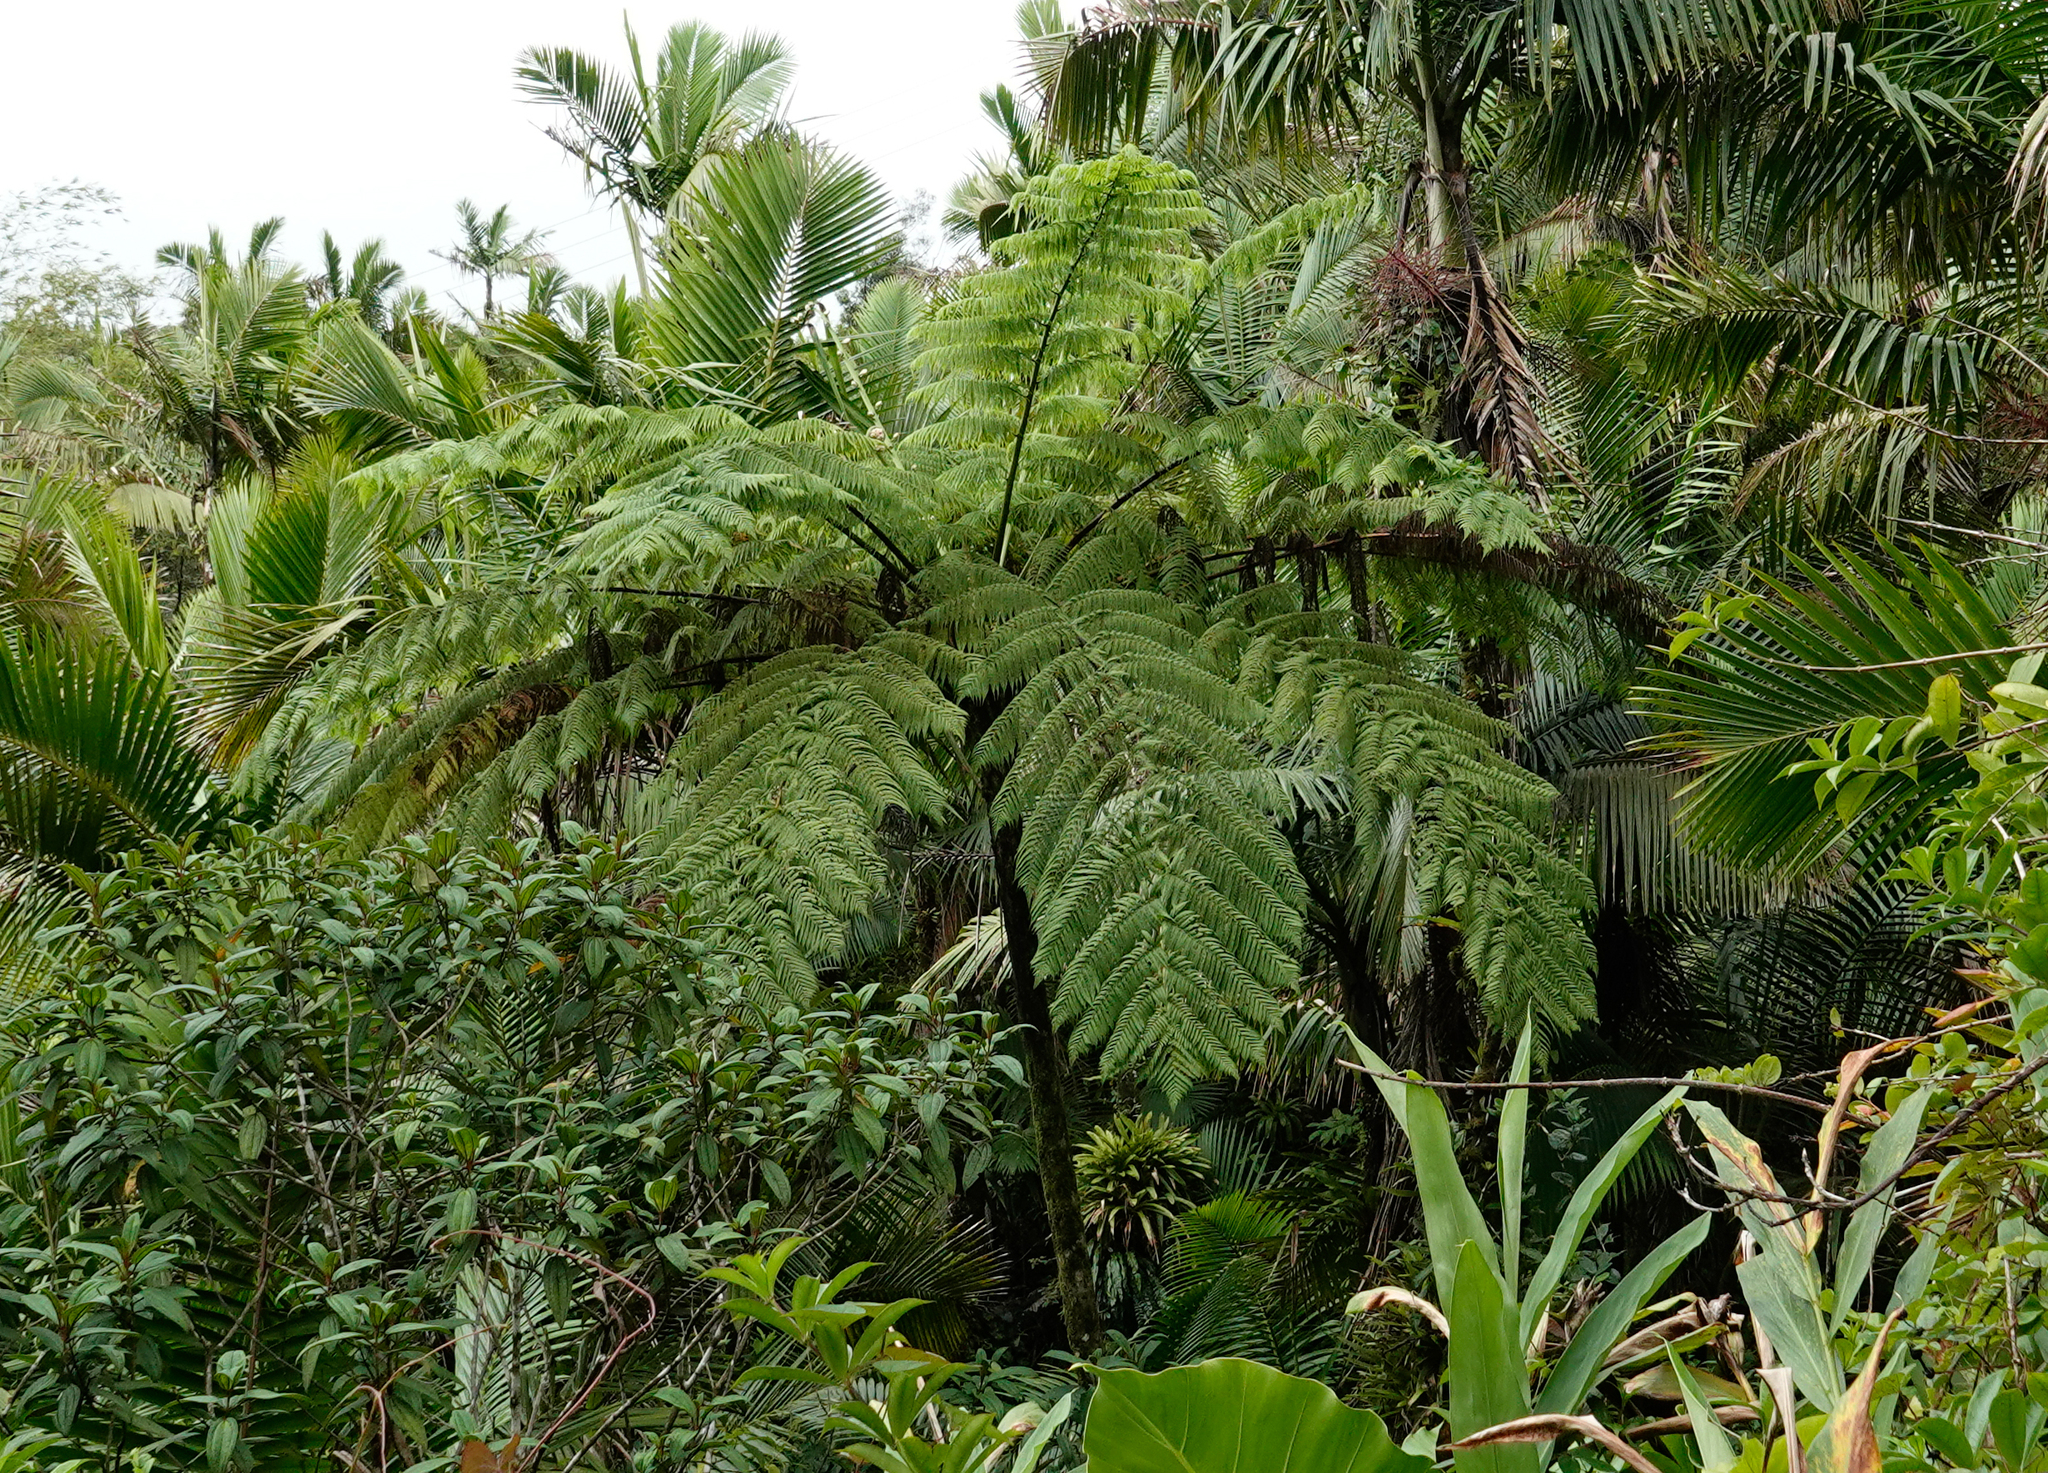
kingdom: Plantae
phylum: Tracheophyta
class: Polypodiopsida
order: Cyatheales
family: Cyatheaceae
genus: Cyathea
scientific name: Cyathea arborea
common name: West indian treefern
